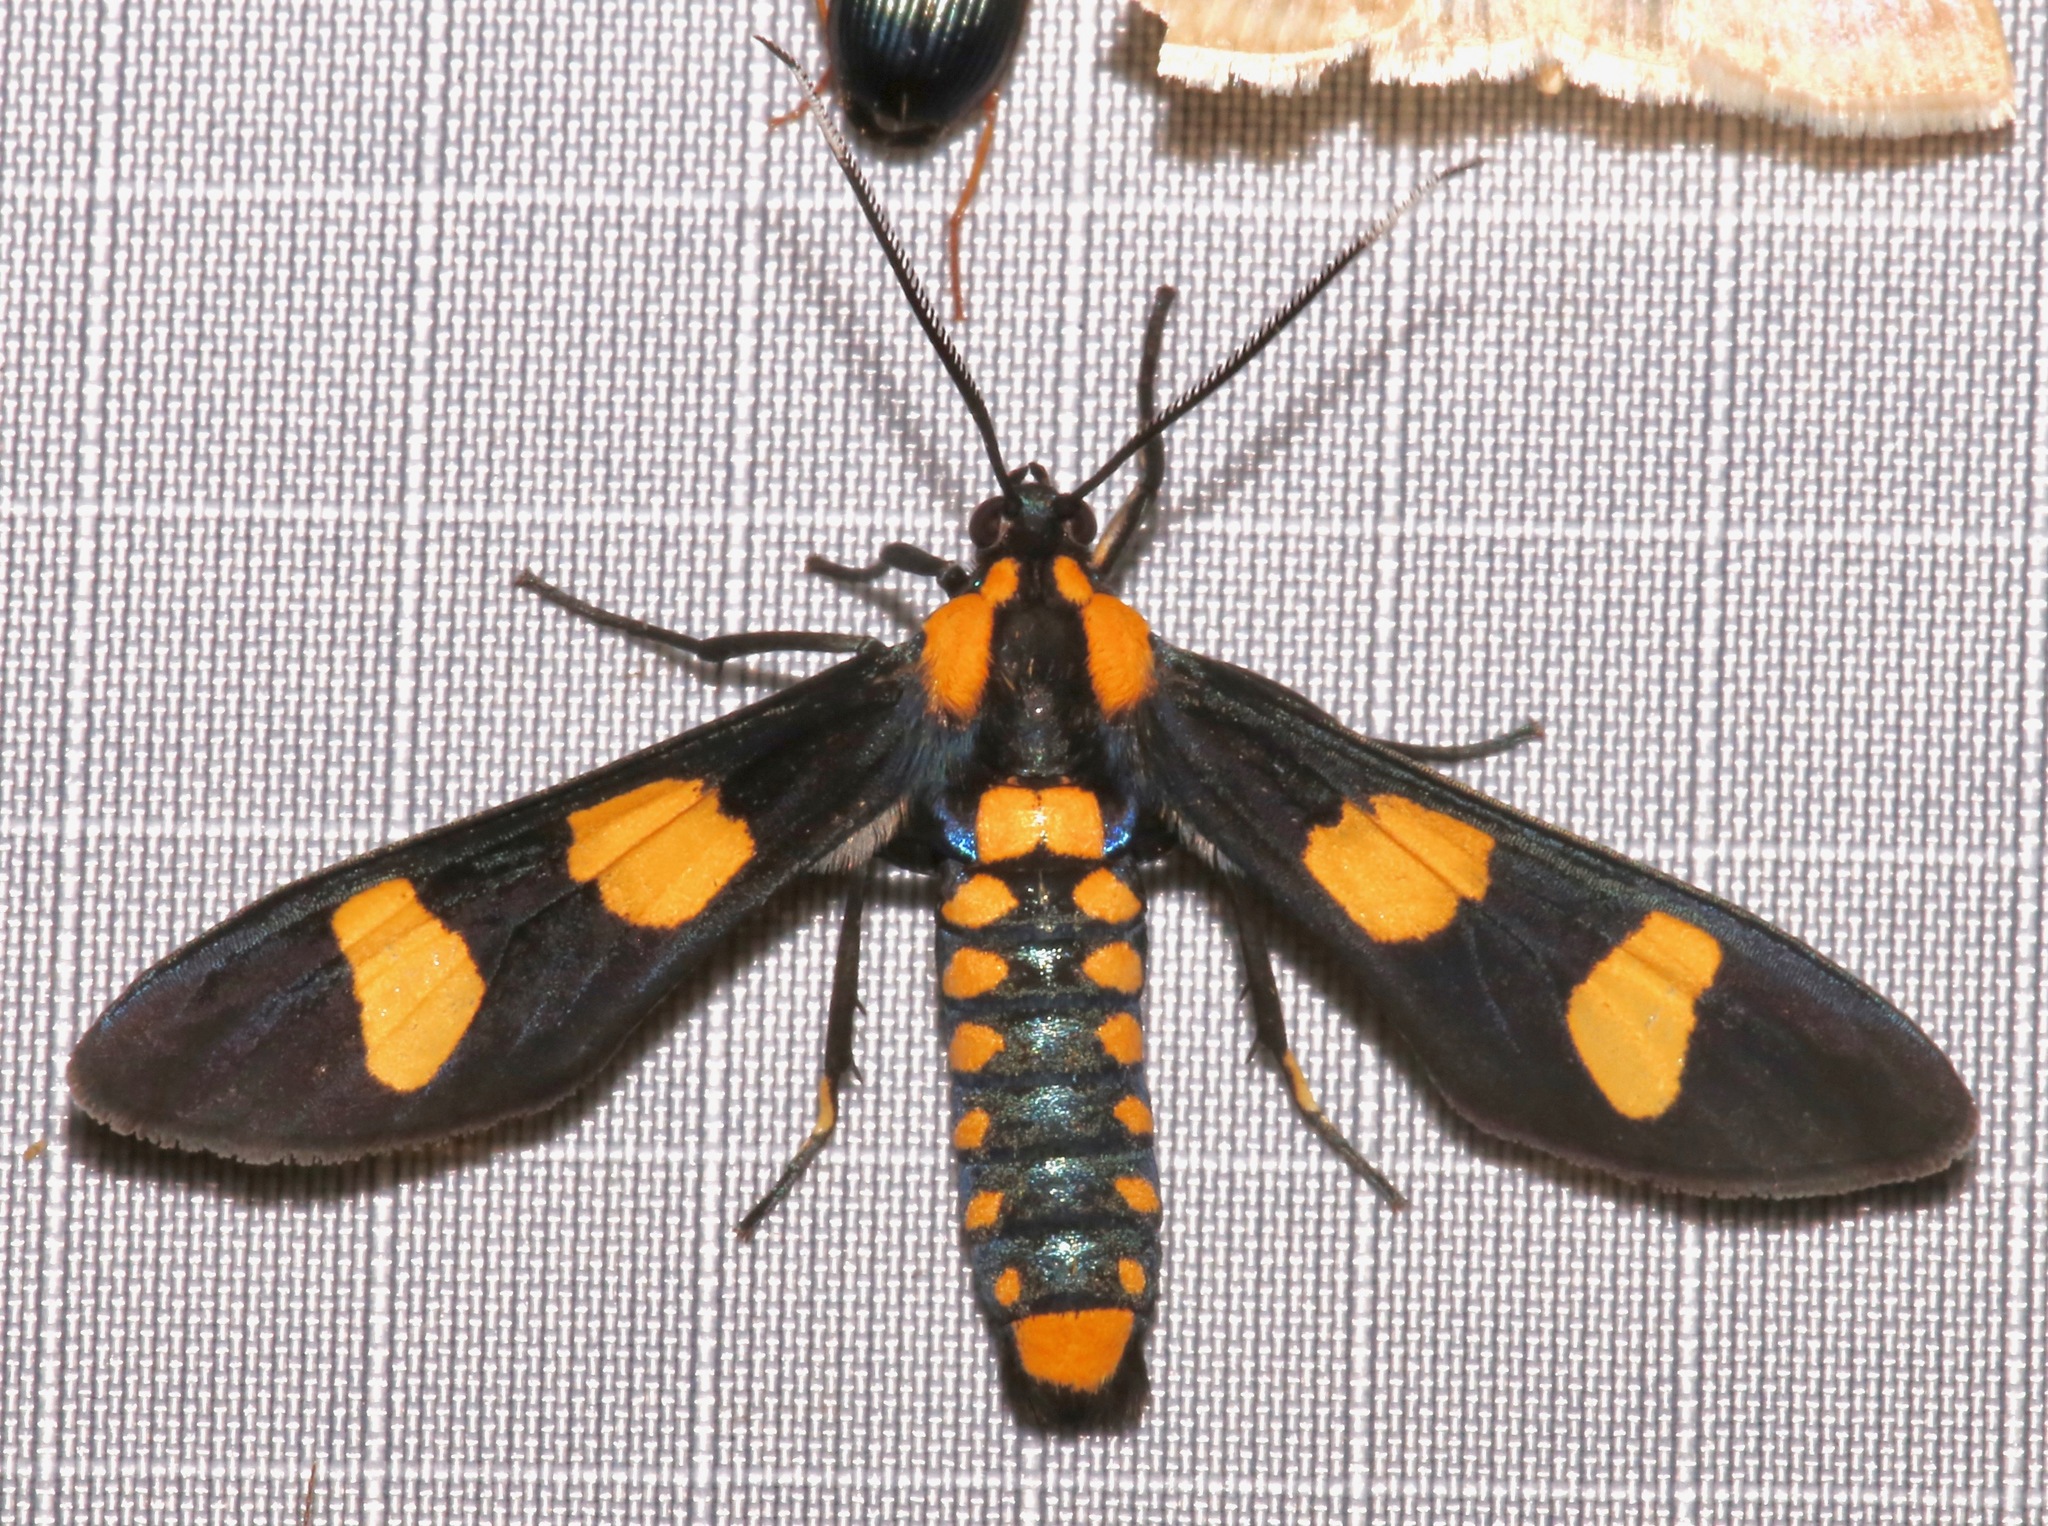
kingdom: Animalia
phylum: Arthropoda
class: Insecta
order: Lepidoptera
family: Erebidae
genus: Phoenicoprocta
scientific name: Phoenicoprocta hampsonii
